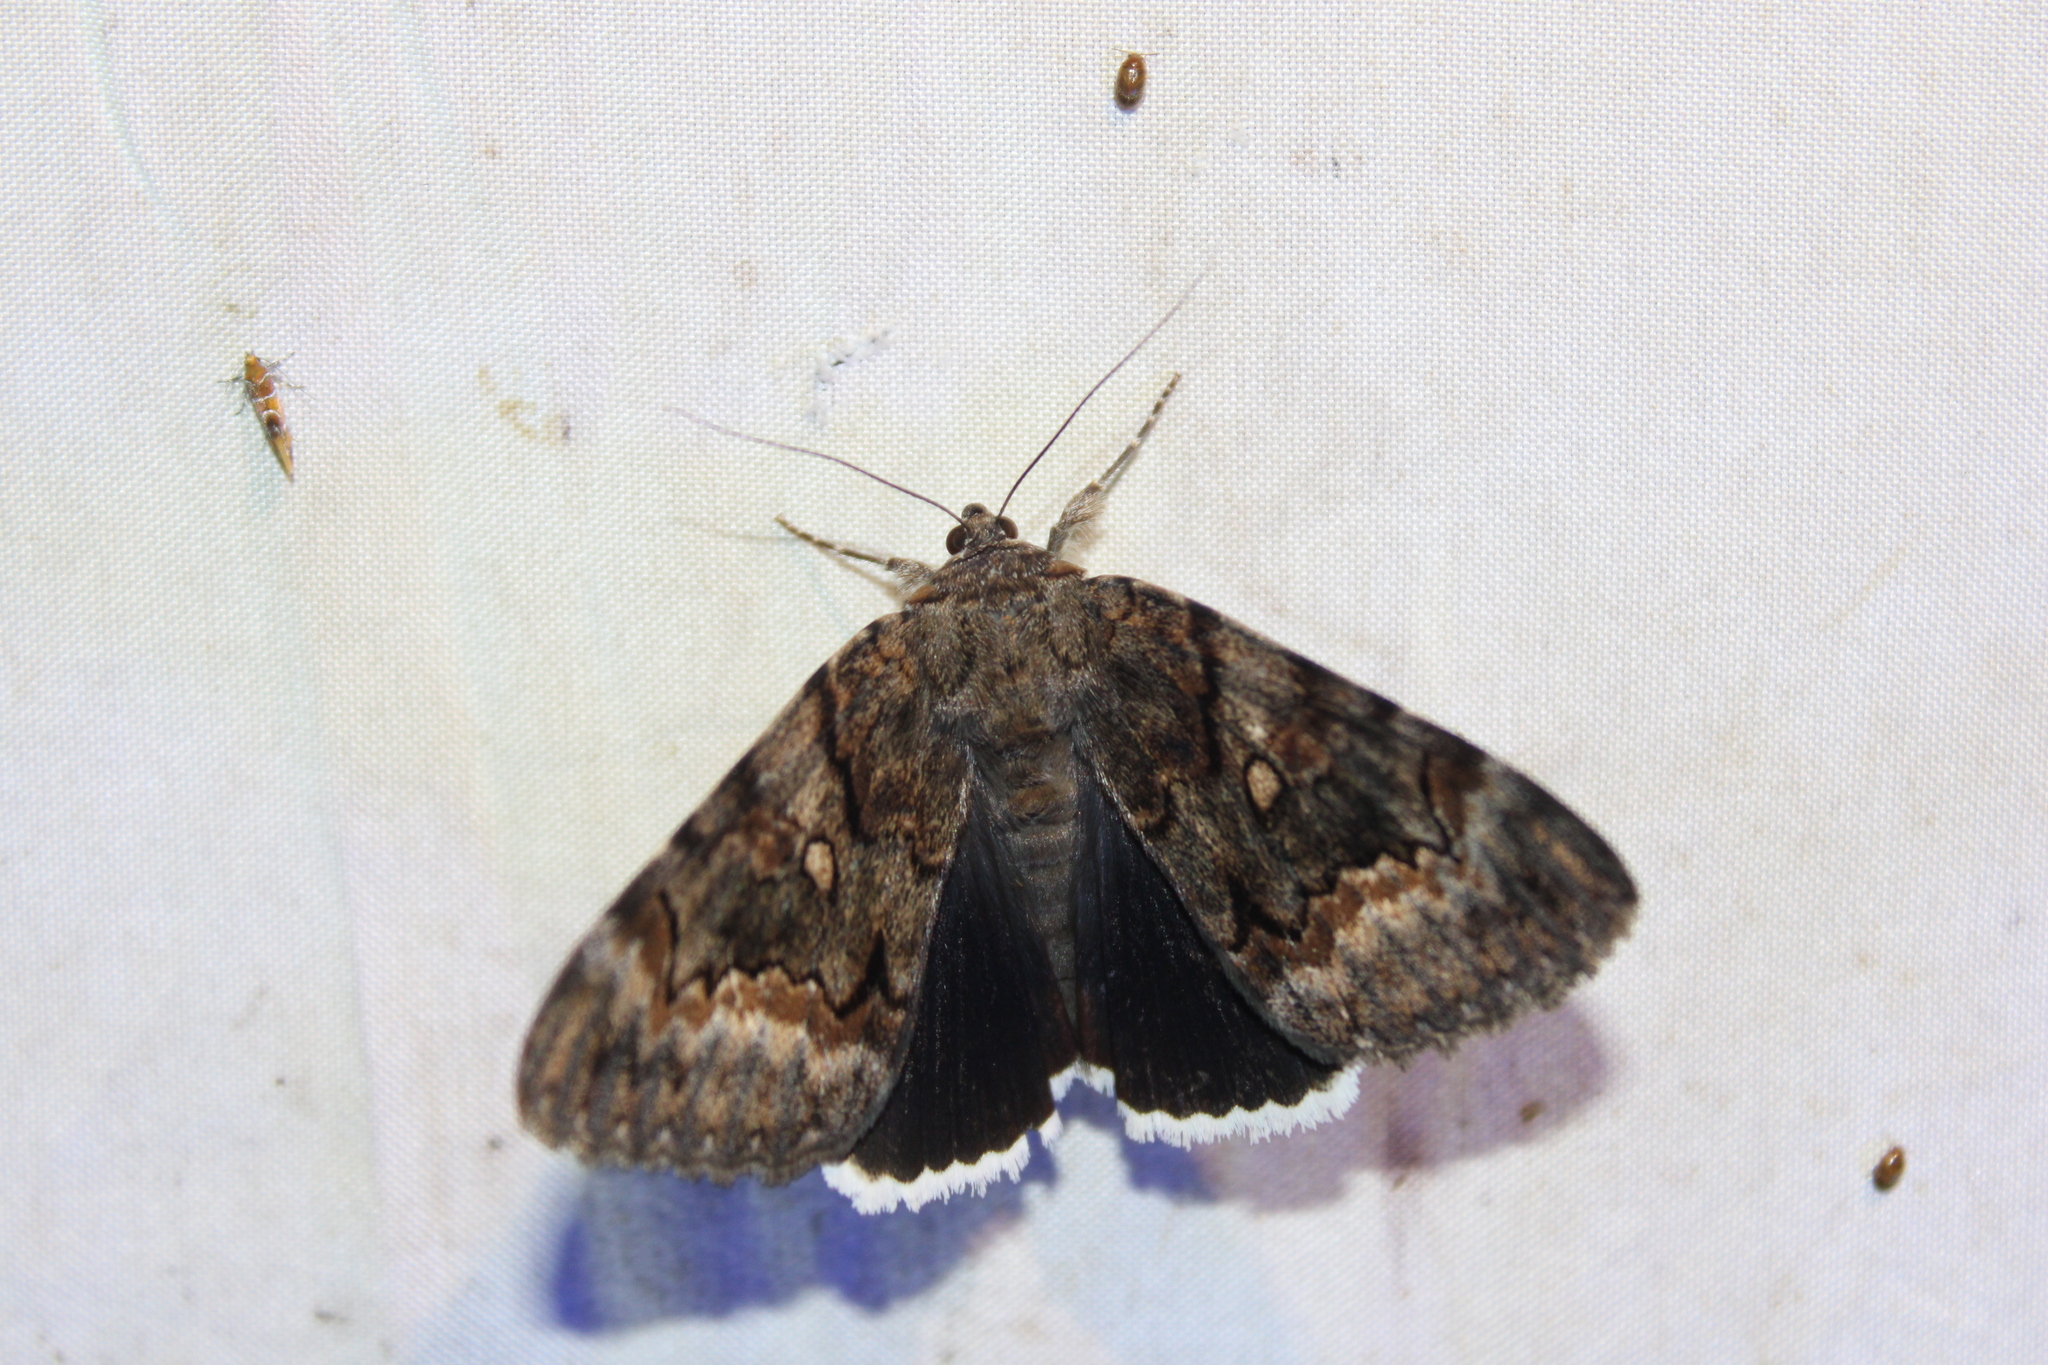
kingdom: Animalia
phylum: Arthropoda
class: Insecta
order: Lepidoptera
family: Erebidae
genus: Catocala
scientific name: Catocala epione
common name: Epione underwing
